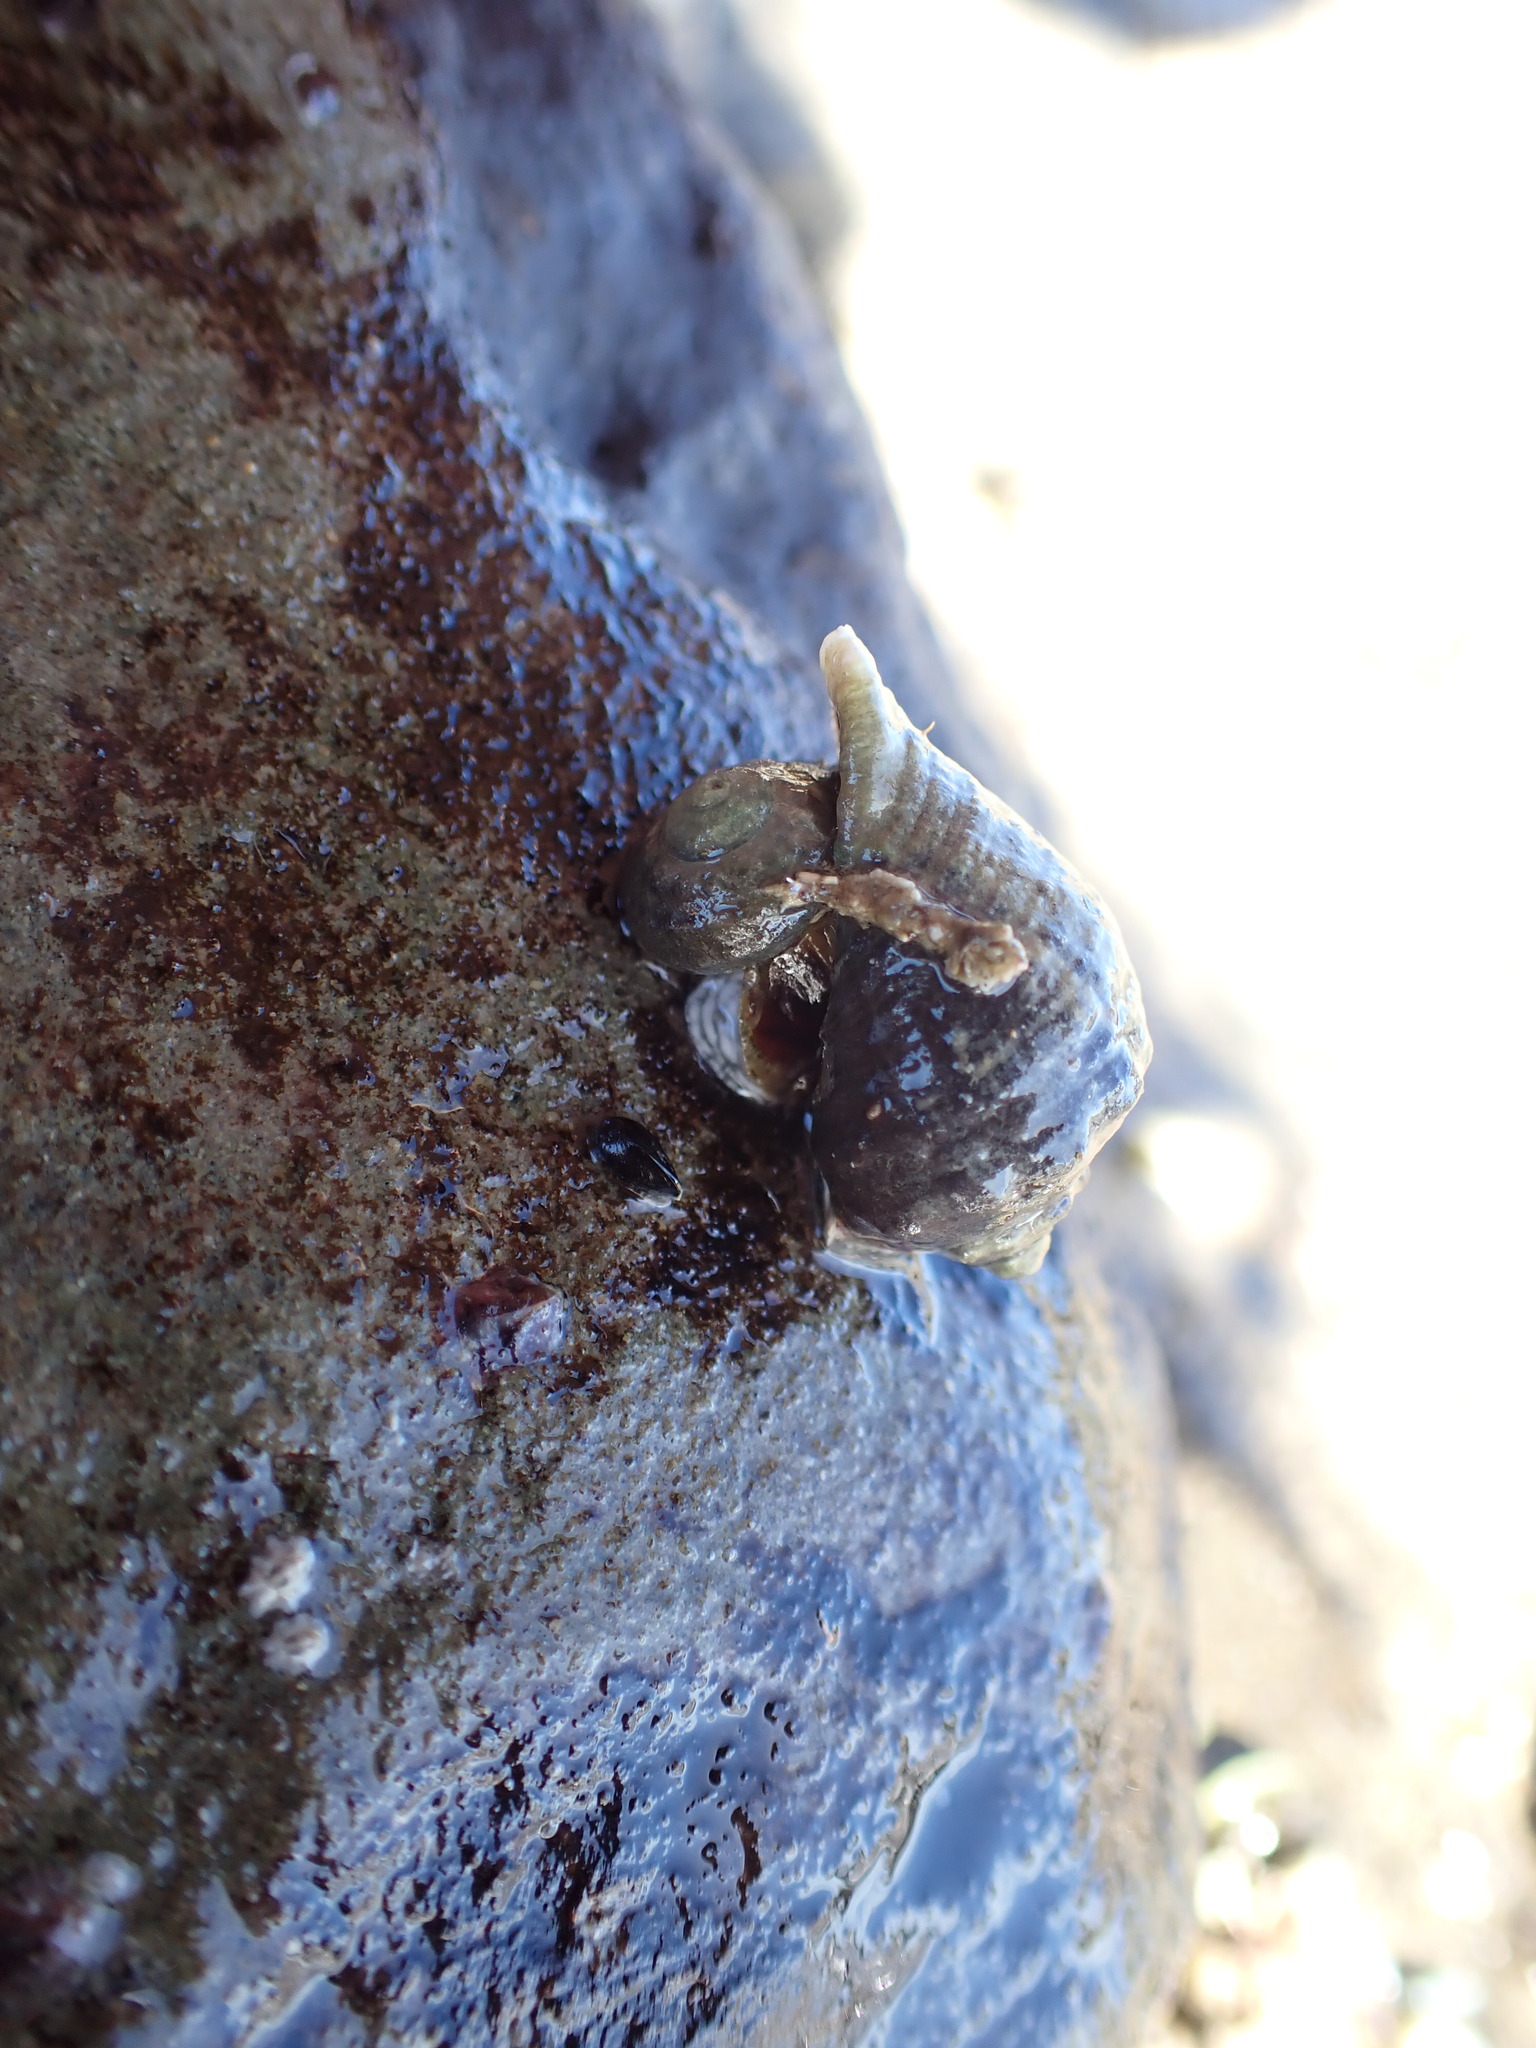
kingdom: Animalia
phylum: Mollusca
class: Gastropoda
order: Neogastropoda
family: Muricidae
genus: Haustrum
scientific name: Haustrum haustorium
